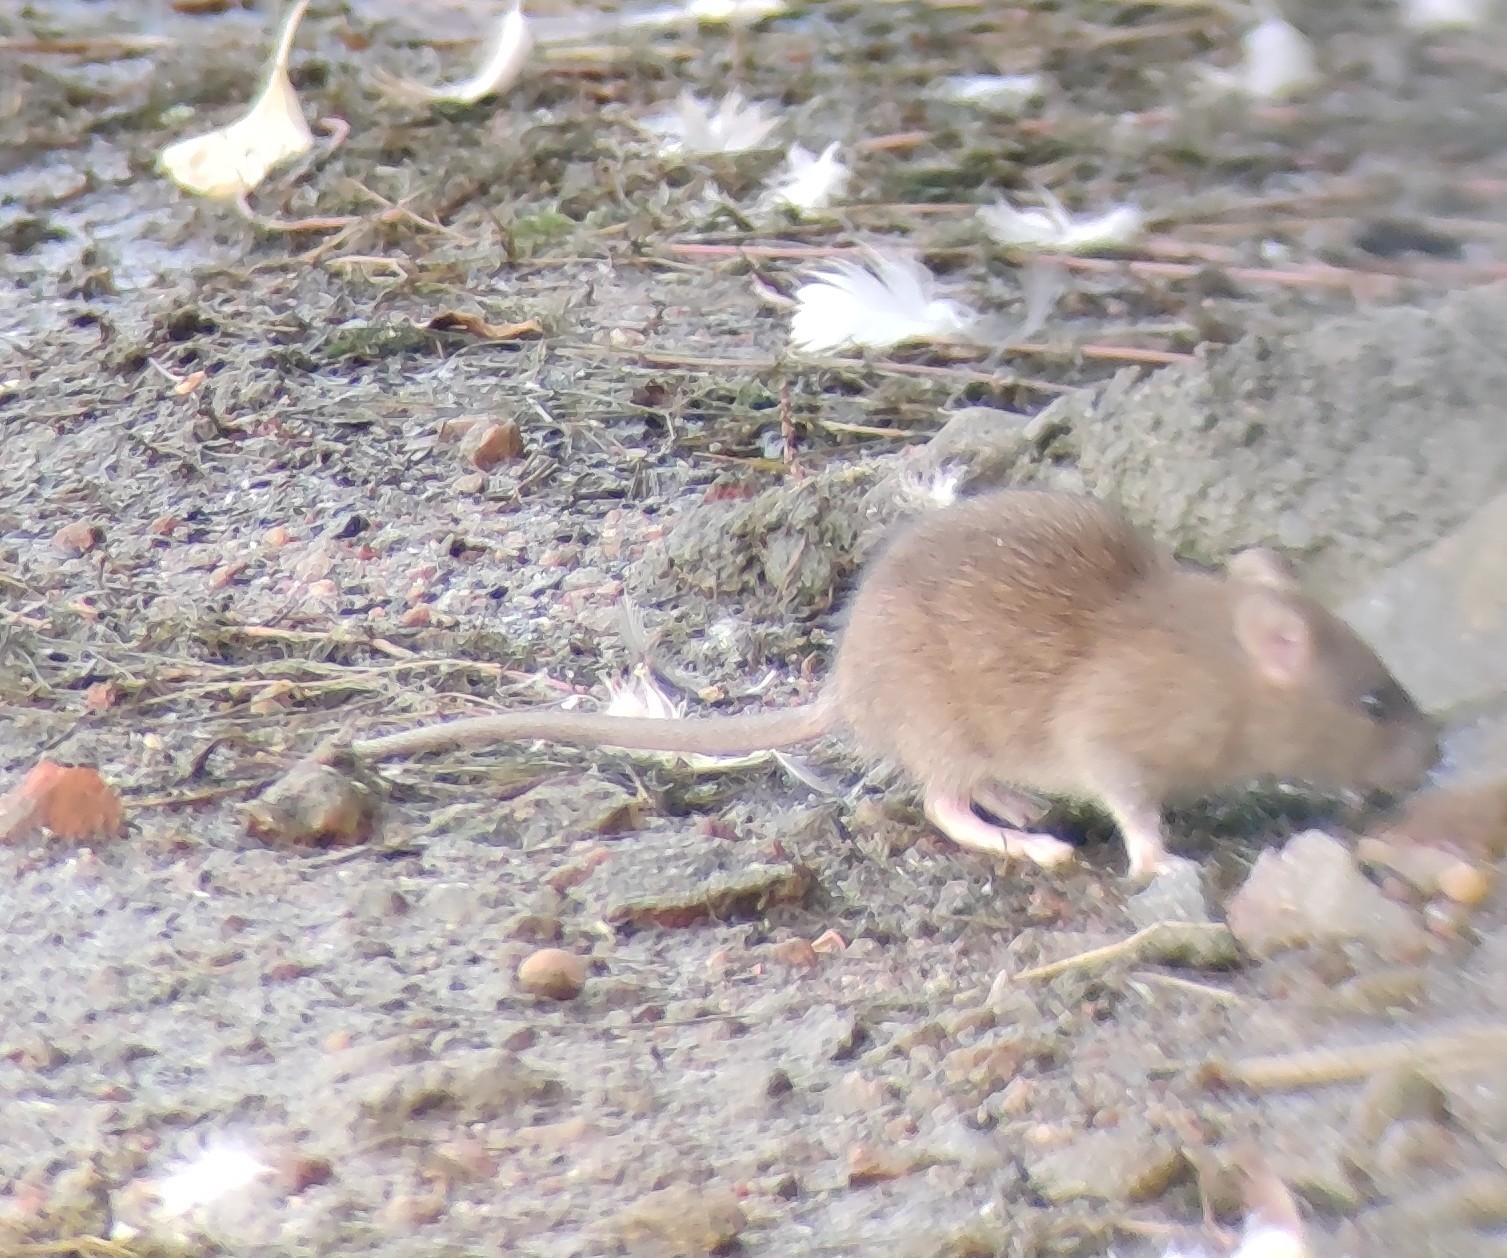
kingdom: Animalia
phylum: Chordata
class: Mammalia
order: Rodentia
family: Muridae
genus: Rattus
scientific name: Rattus norvegicus
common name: Brown rat
